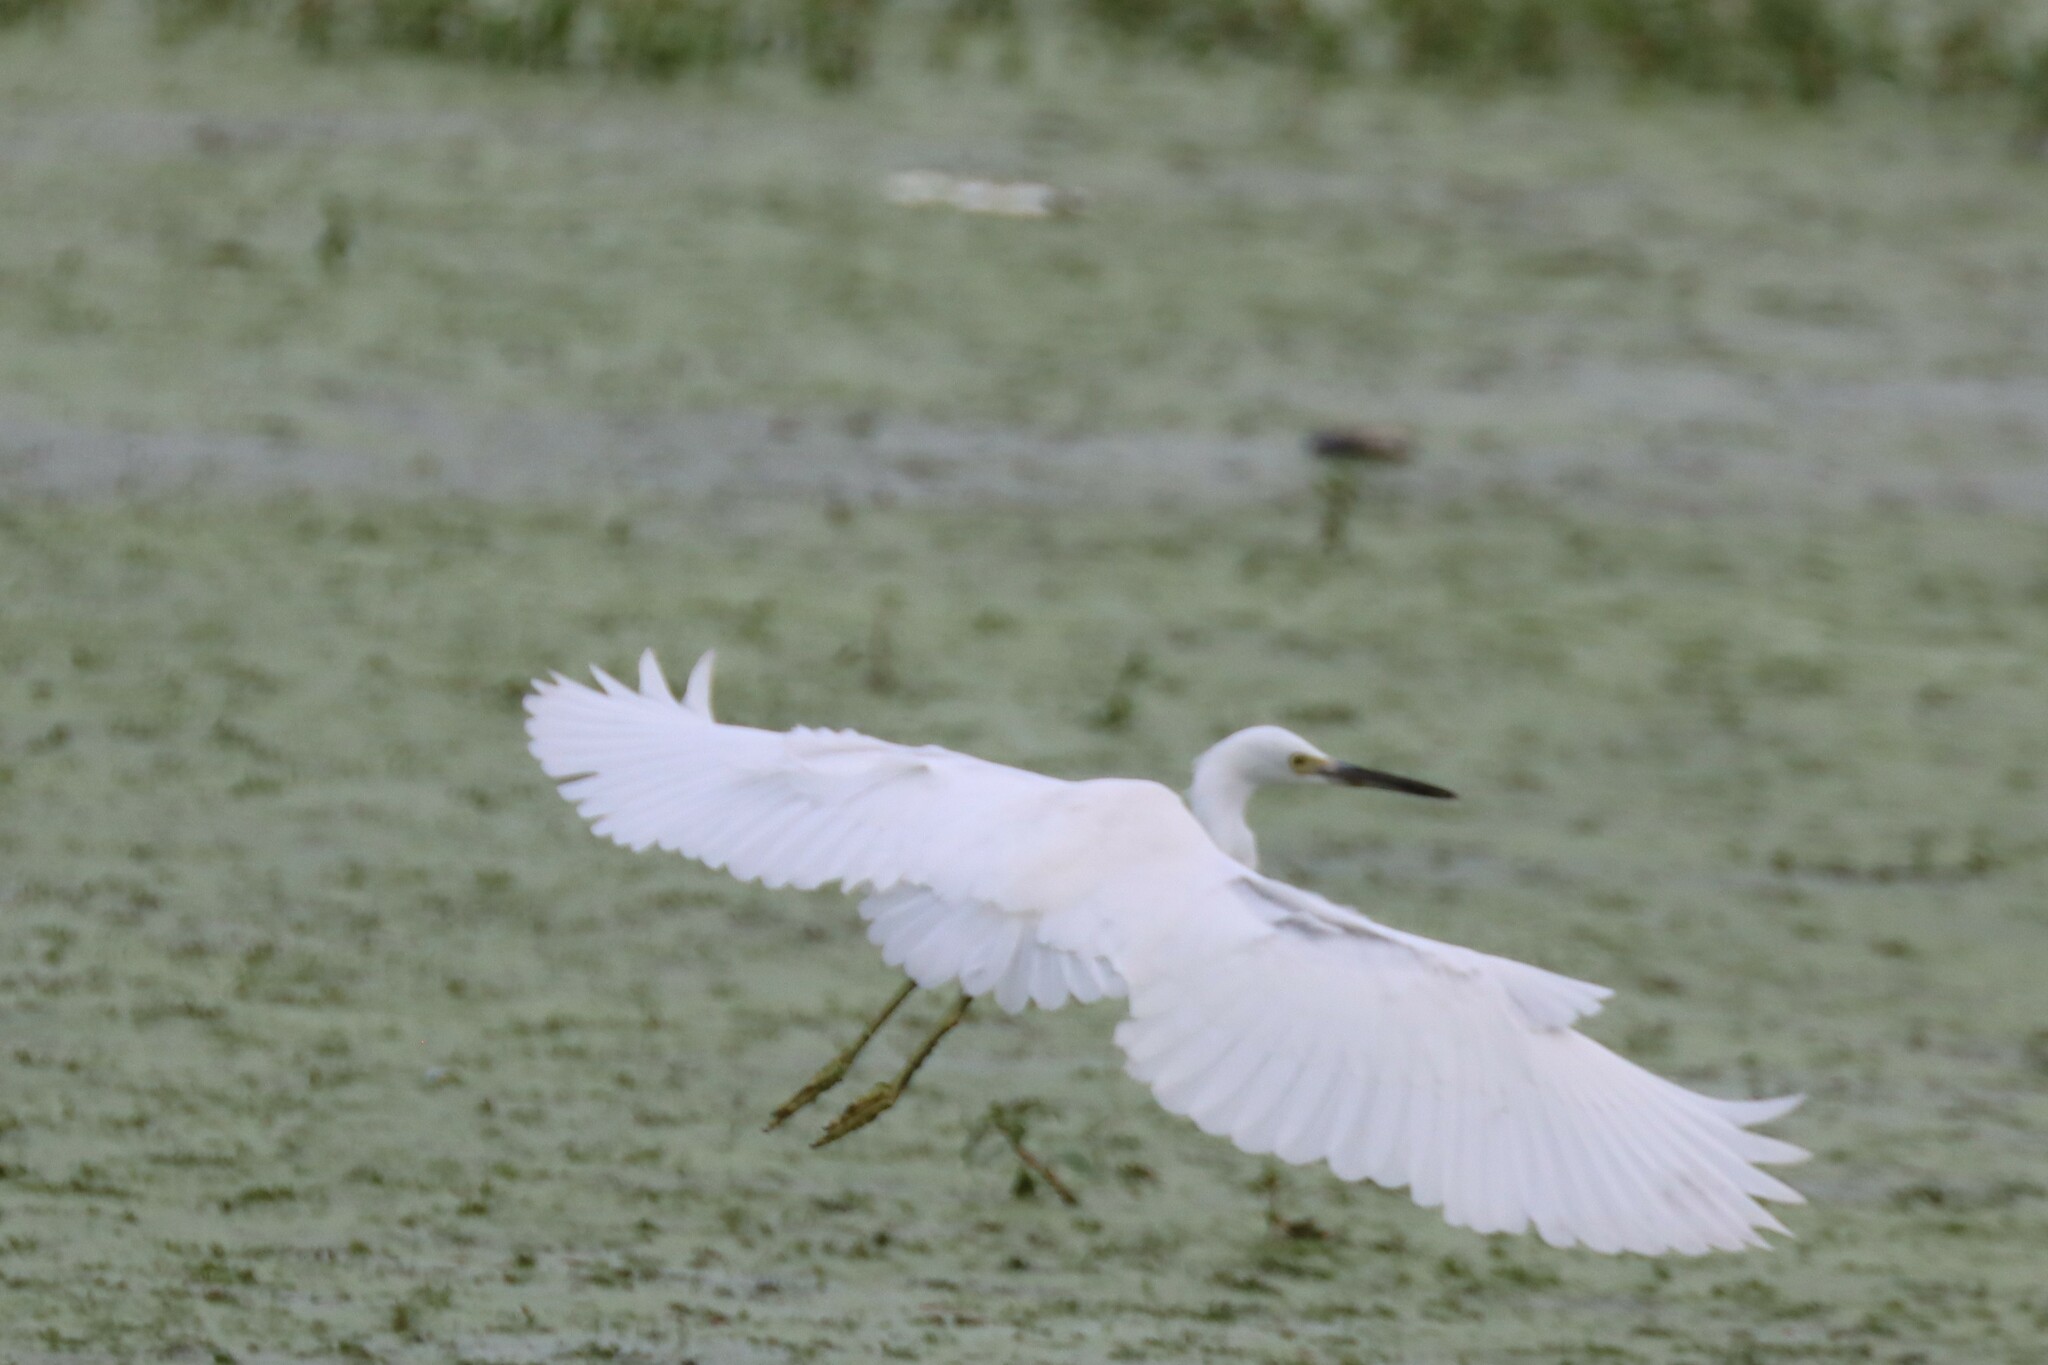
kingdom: Animalia
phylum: Chordata
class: Aves
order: Pelecaniformes
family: Ardeidae
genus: Egretta
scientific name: Egretta thula
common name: Snowy egret
